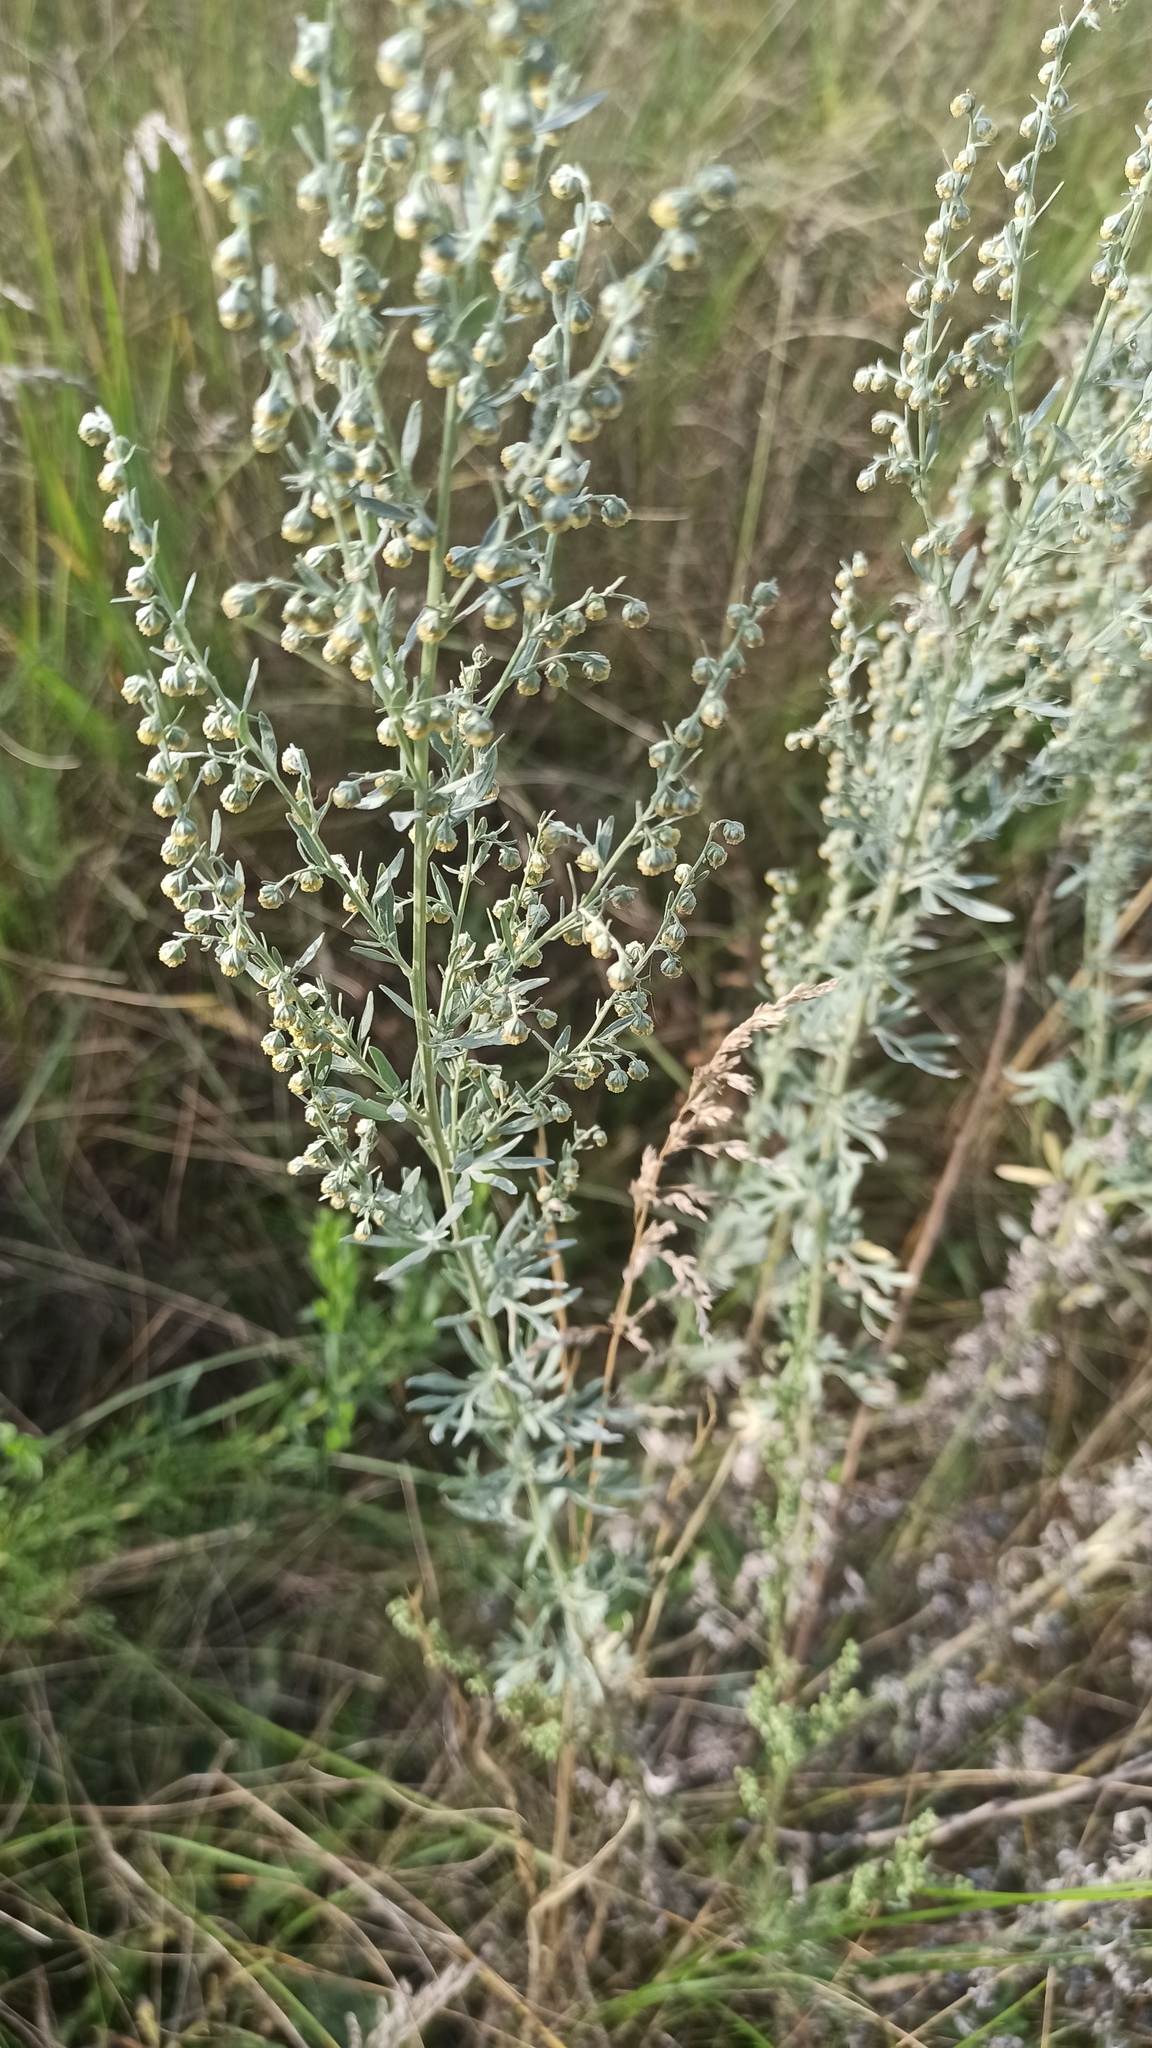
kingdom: Plantae
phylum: Tracheophyta
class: Magnoliopsida
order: Asterales
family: Asteraceae
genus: Artemisia
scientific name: Artemisia absinthium
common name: Wormwood
